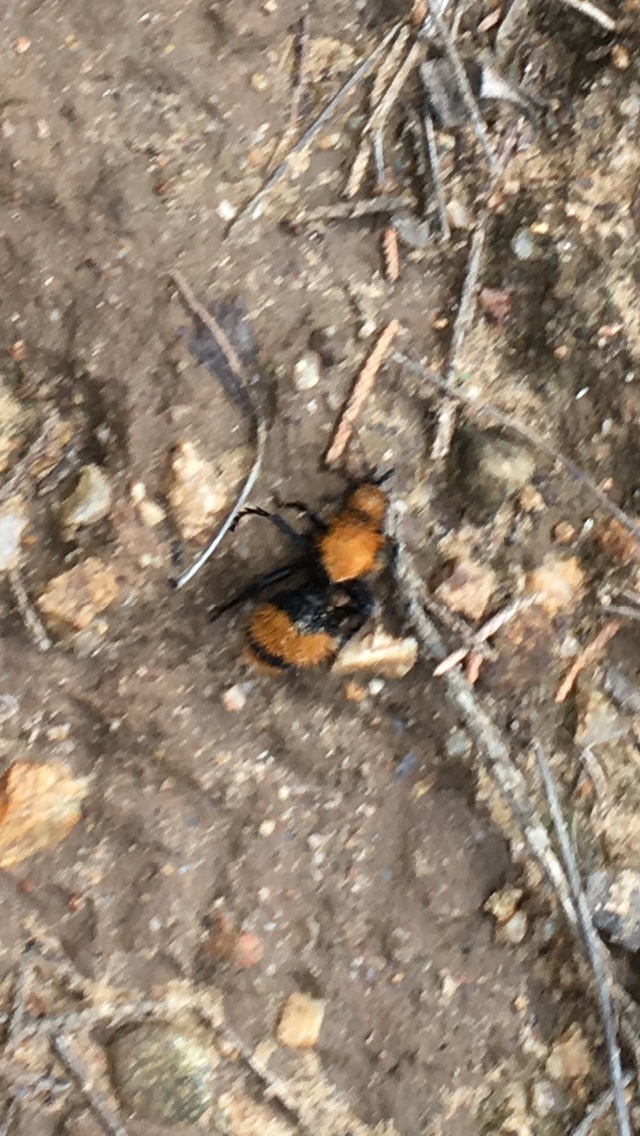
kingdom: Animalia
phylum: Arthropoda
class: Insecta
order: Hymenoptera
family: Mutillidae
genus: Dasymutilla
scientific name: Dasymutilla occidentalis
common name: Common eastern velvet ant
